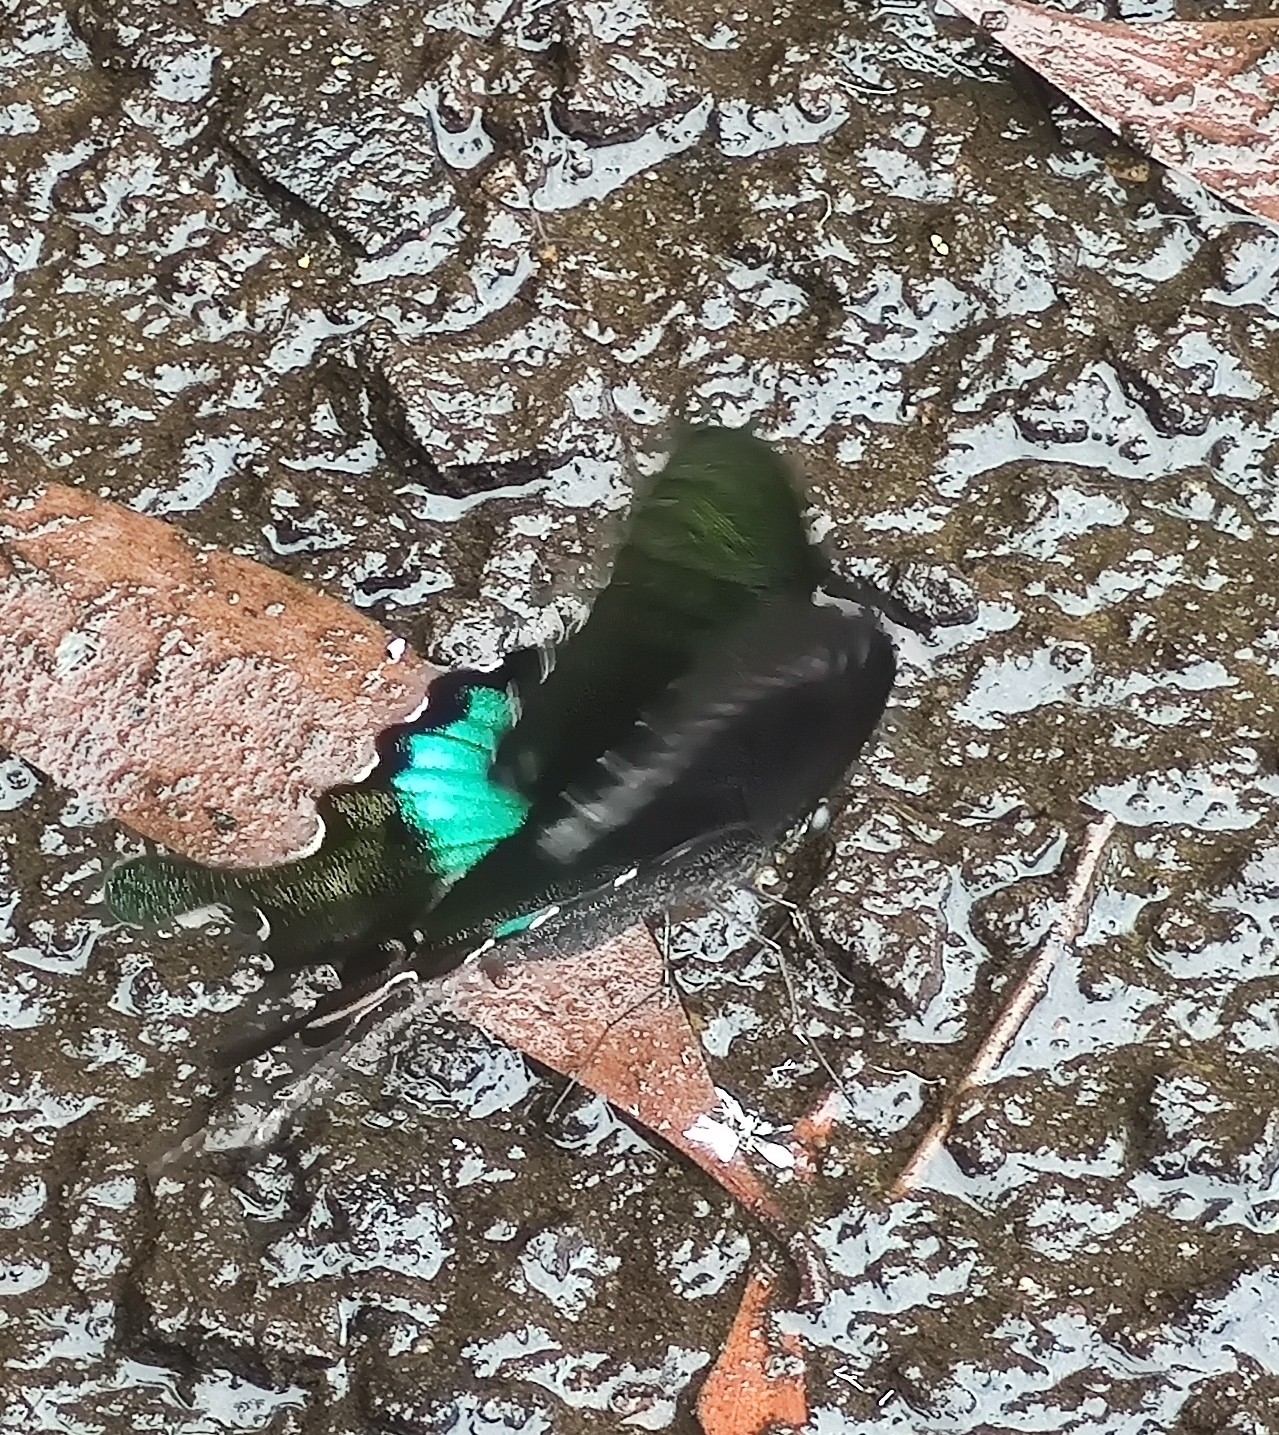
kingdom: Animalia
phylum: Arthropoda
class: Insecta
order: Lepidoptera
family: Papilionidae
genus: Papilio
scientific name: Papilio paris
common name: Paris peacock
